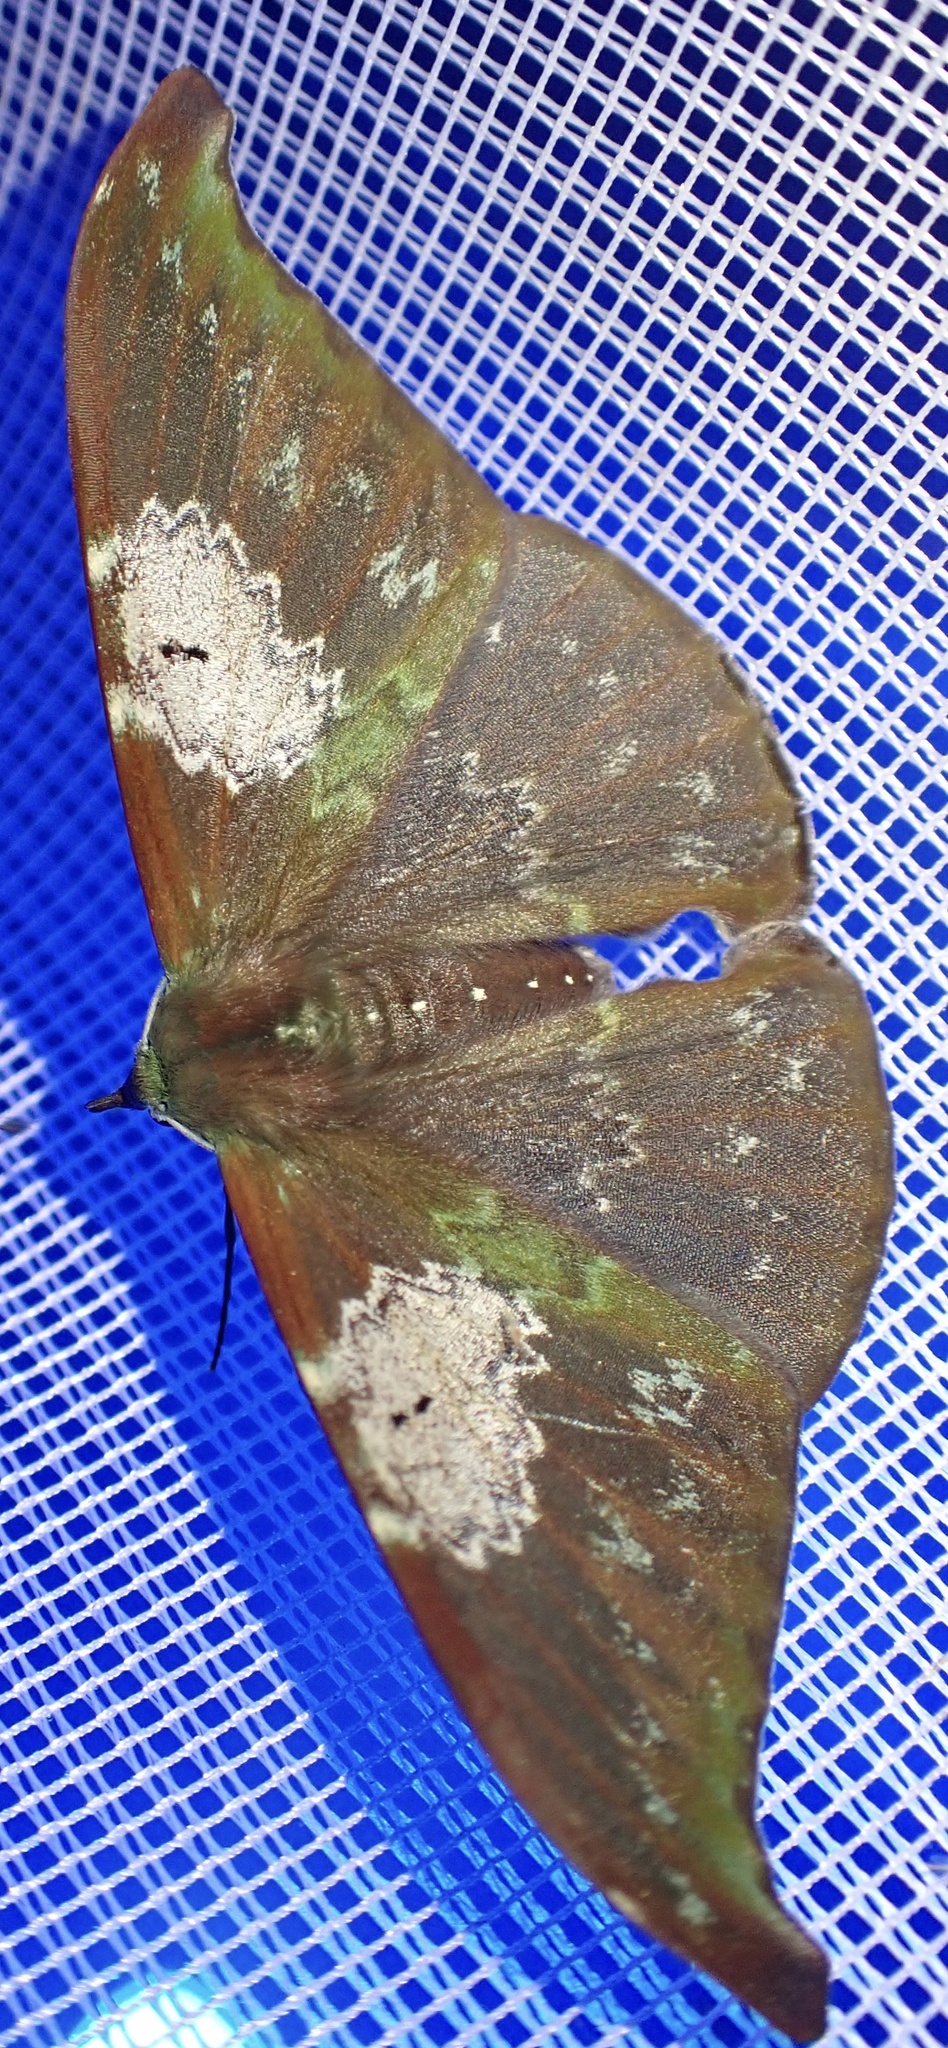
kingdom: Animalia
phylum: Arthropoda
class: Insecta
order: Lepidoptera
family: Geometridae
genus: Tanaorhinus
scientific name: Tanaorhinus unipuncta
